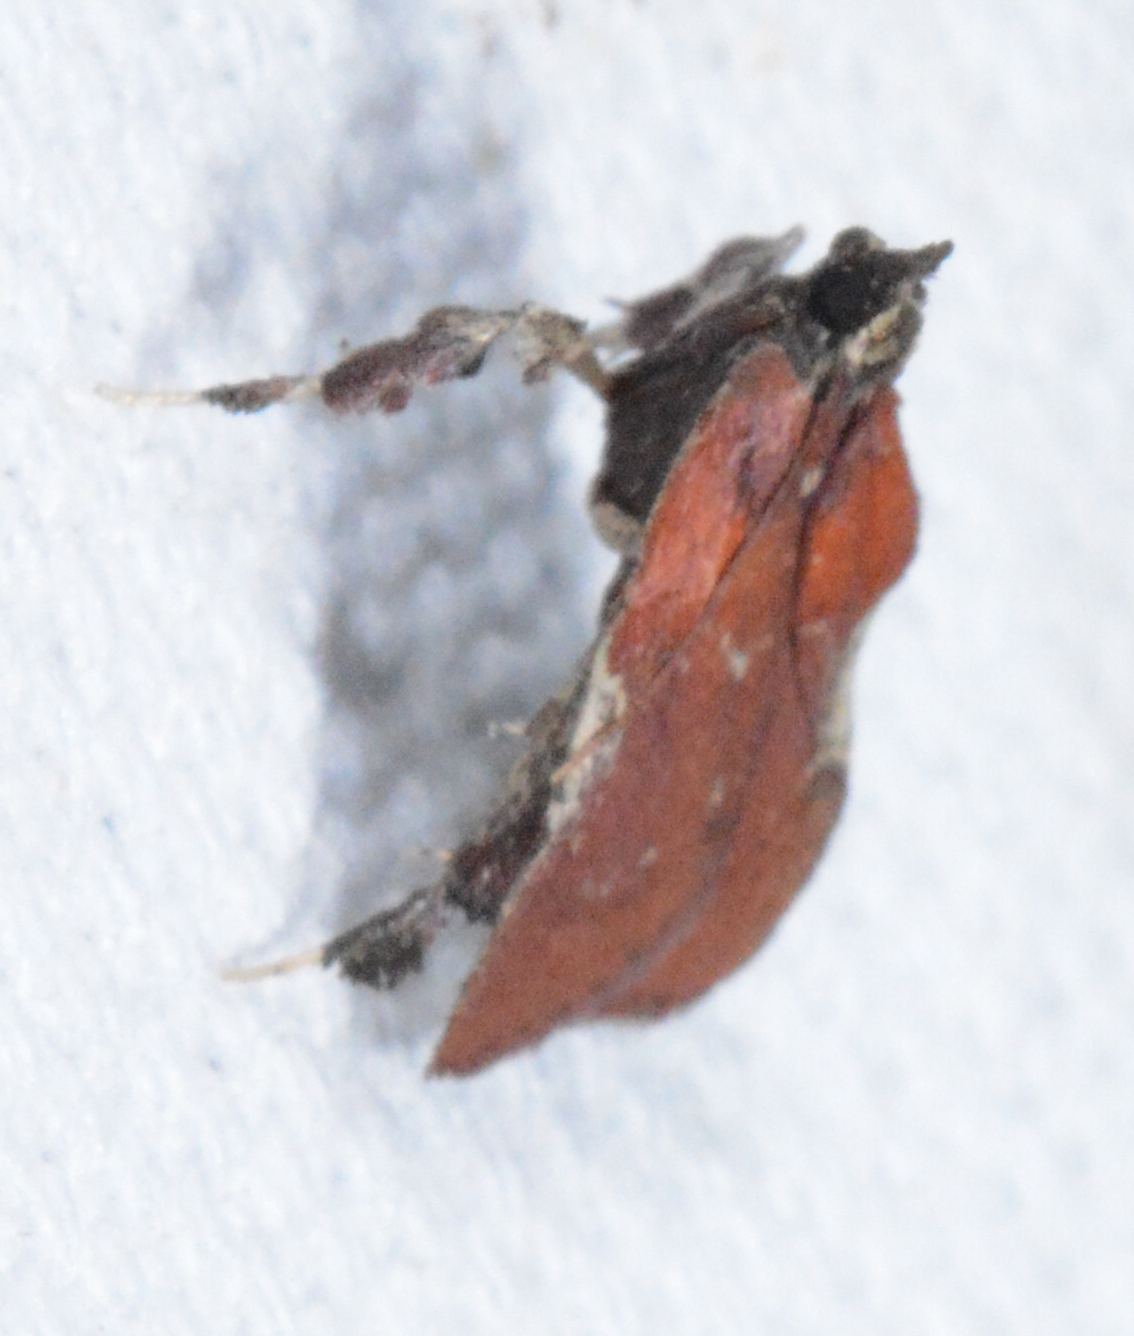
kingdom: Animalia
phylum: Arthropoda
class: Insecta
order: Lepidoptera
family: Pyralidae
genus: Galasa
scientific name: Galasa nigrinodis
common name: Boxwood leaftier moth
